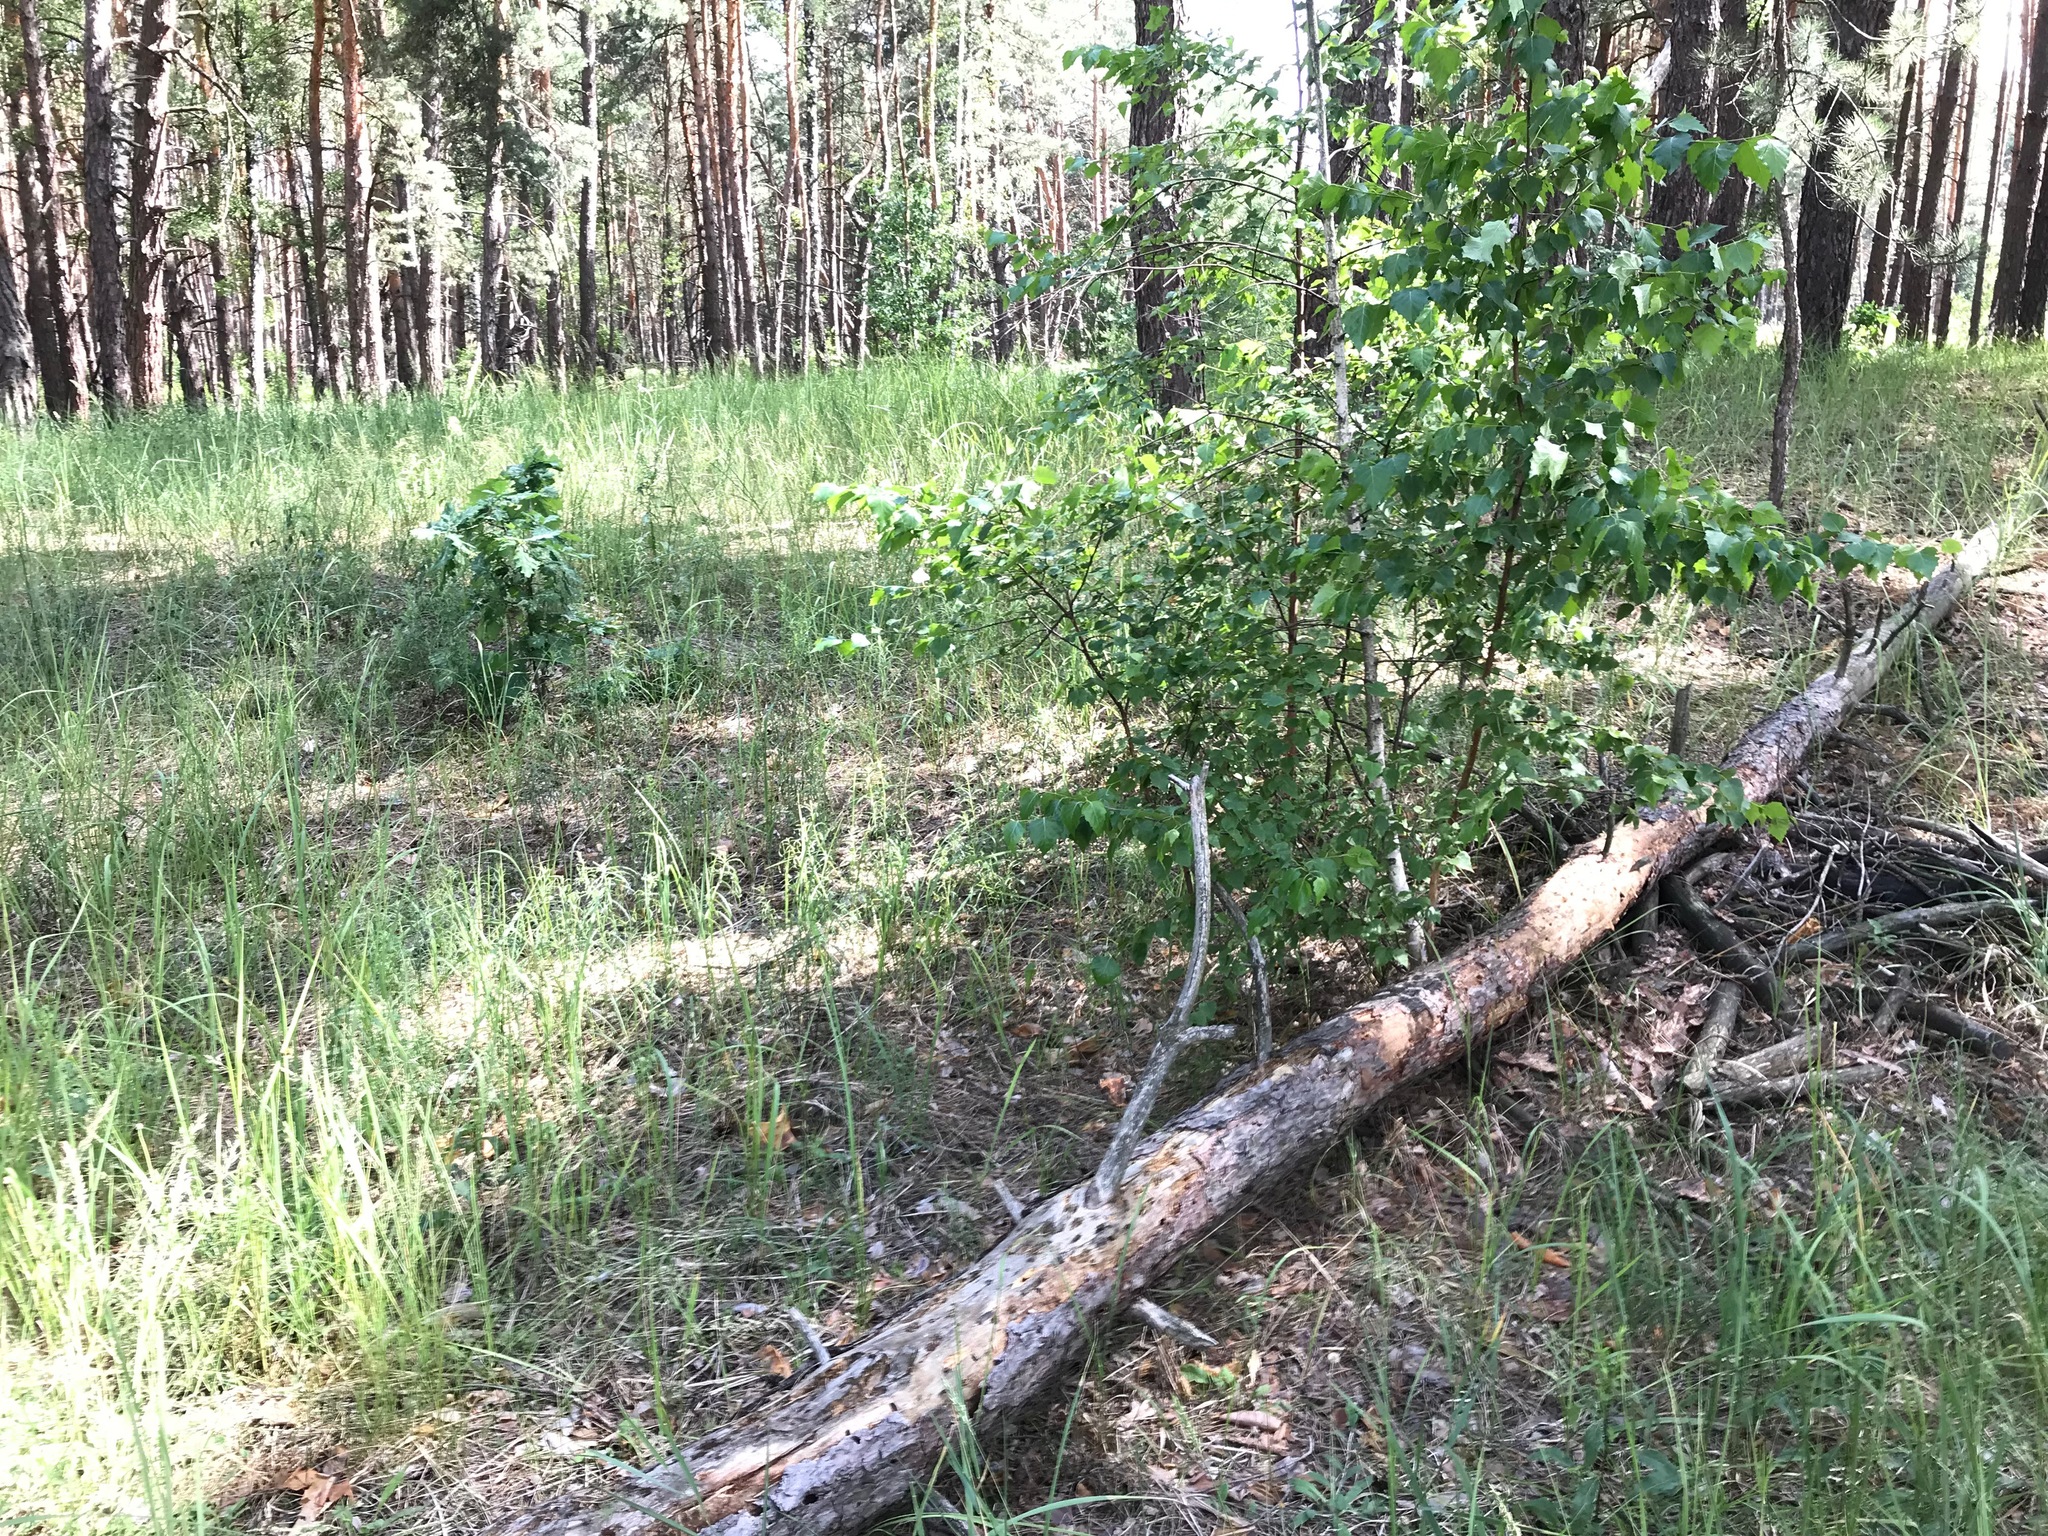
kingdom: Animalia
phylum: Arthropoda
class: Insecta
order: Coleoptera
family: Buprestidae
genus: Chalcophora
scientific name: Chalcophora mariana
